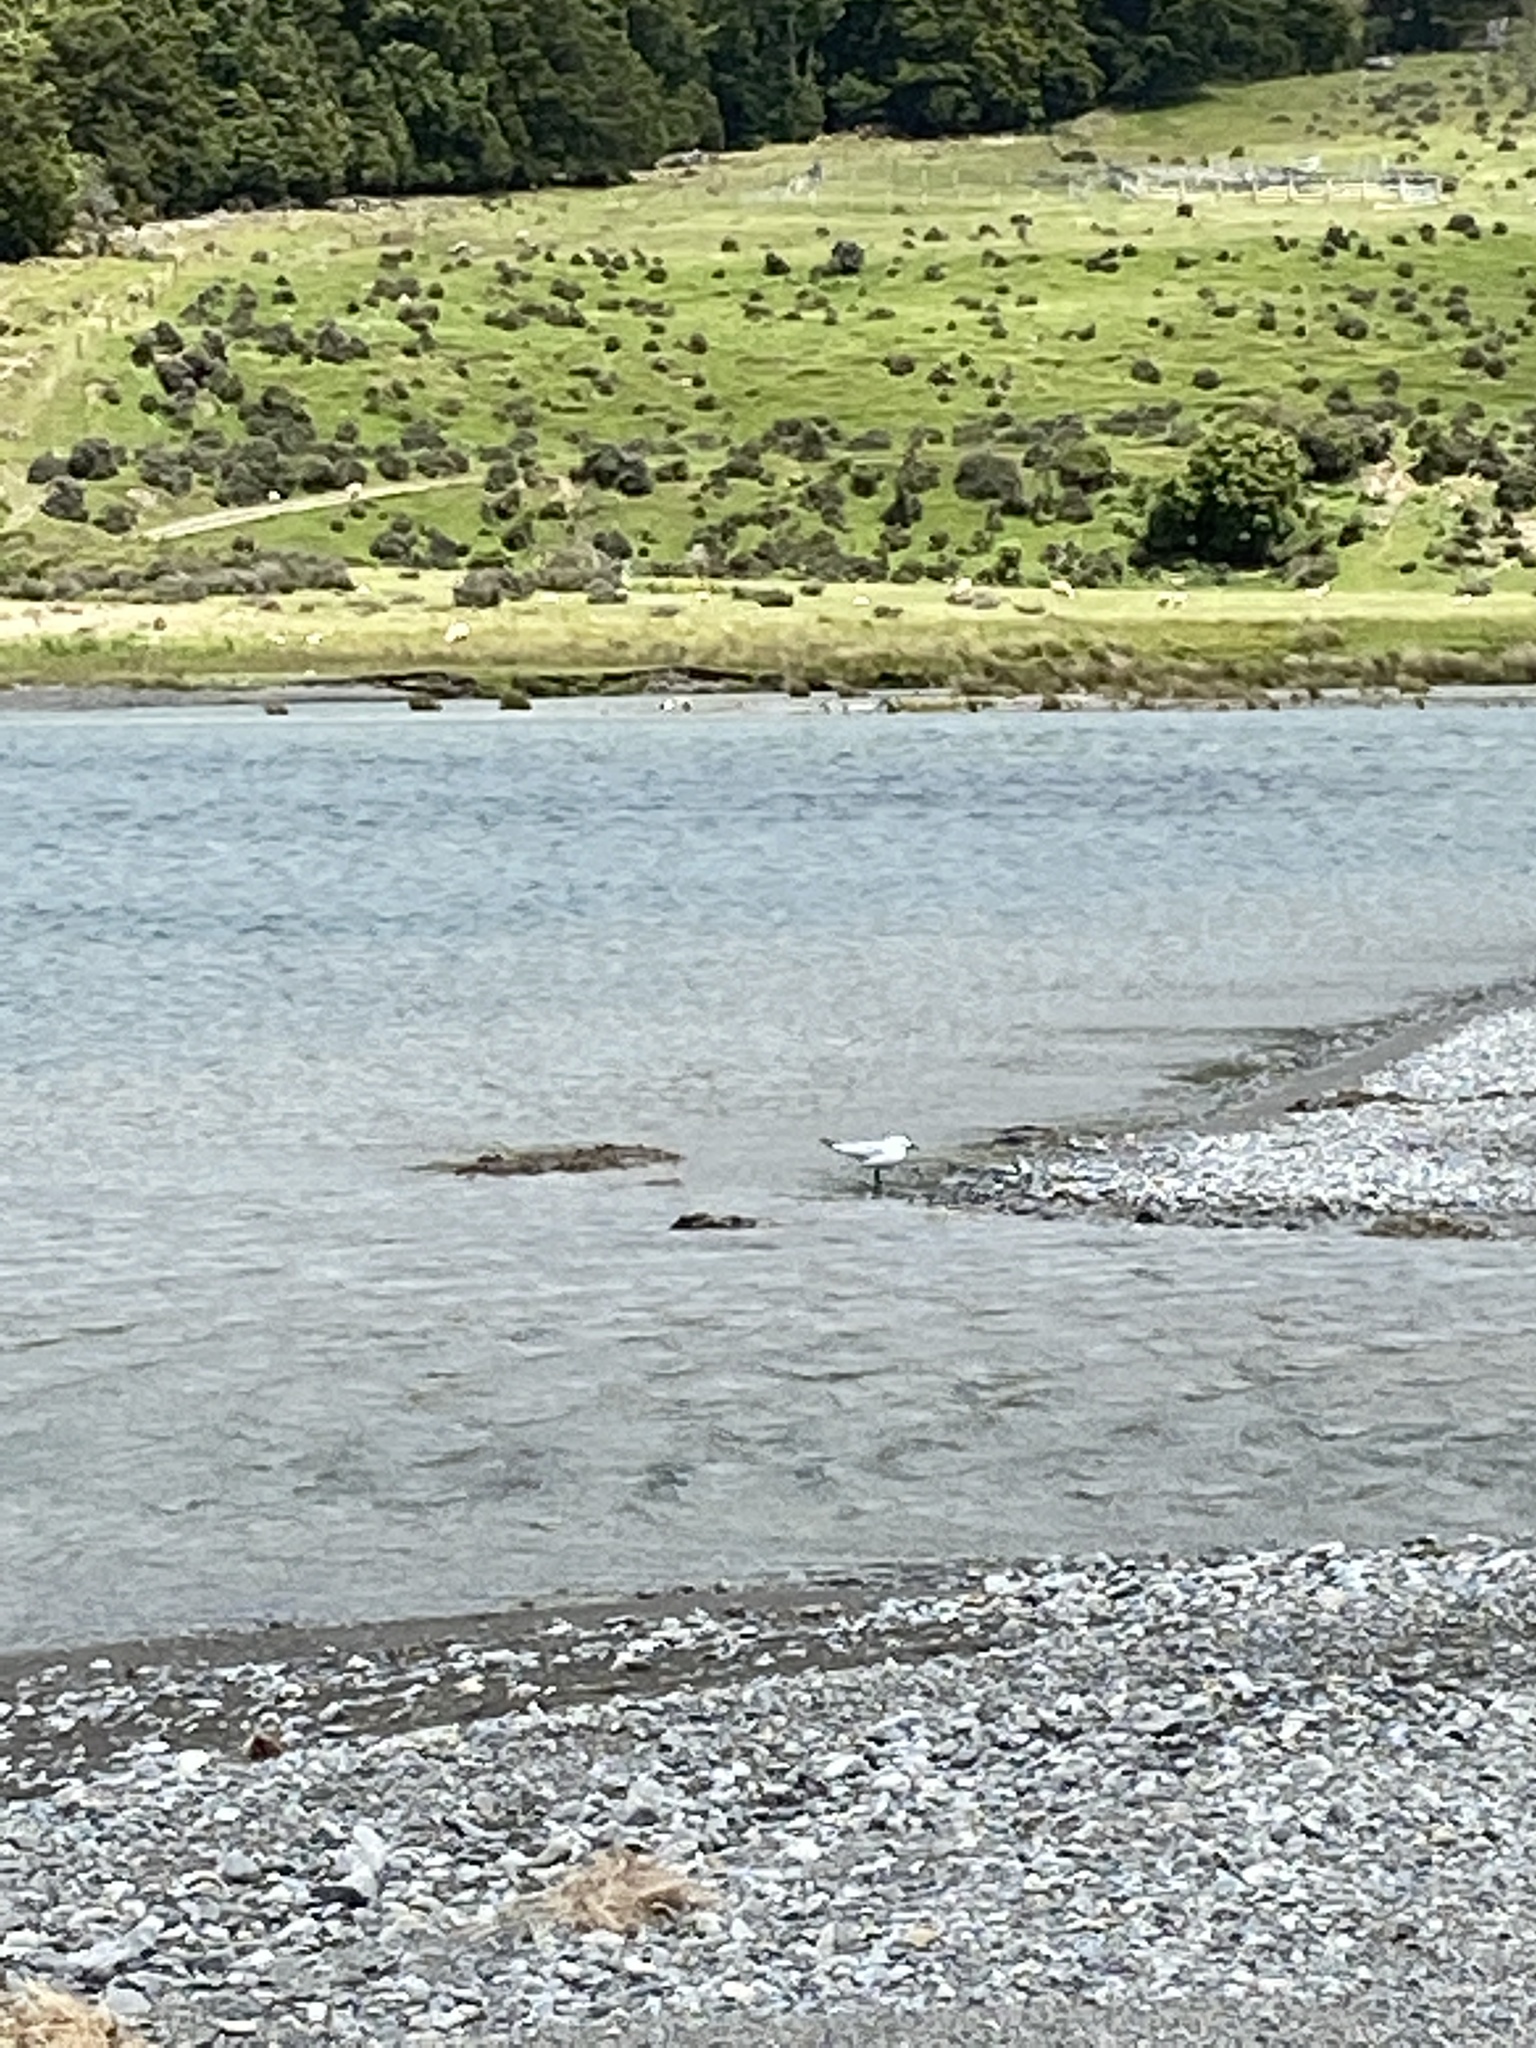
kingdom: Animalia
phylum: Chordata
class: Aves
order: Charadriiformes
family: Laridae
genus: Chroicocephalus
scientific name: Chroicocephalus bulleri
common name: Black-billed gull
